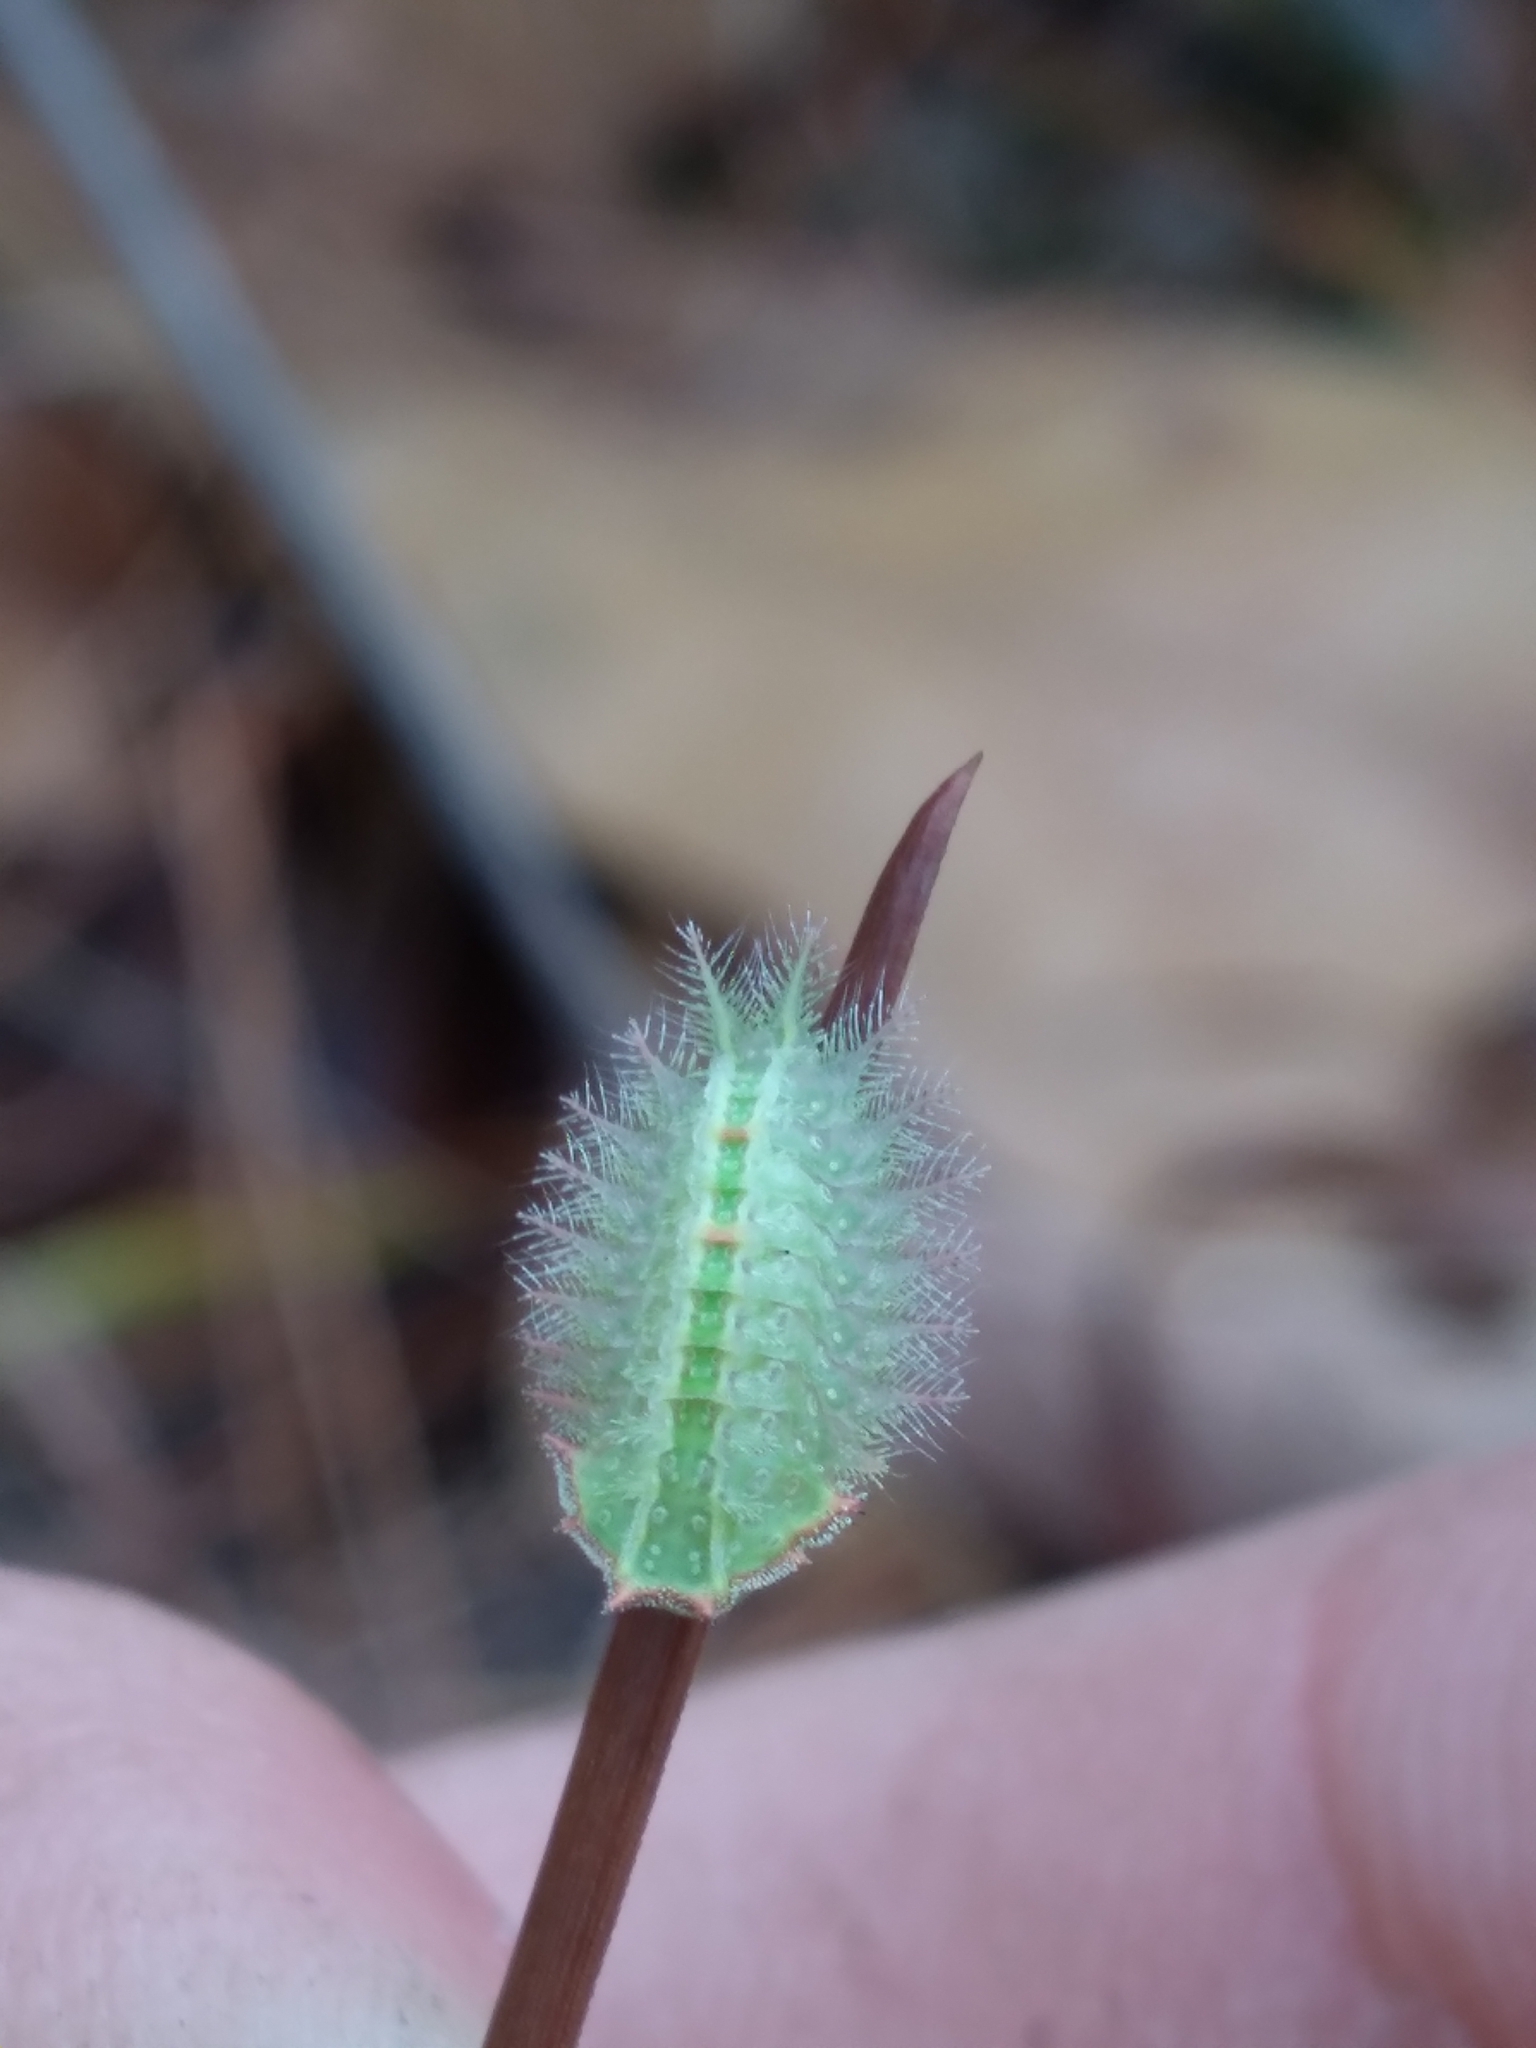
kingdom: Animalia
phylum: Arthropoda
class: Insecta
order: Lepidoptera
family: Limacodidae
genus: Isa
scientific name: Isa textula
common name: Crowned slug moth
